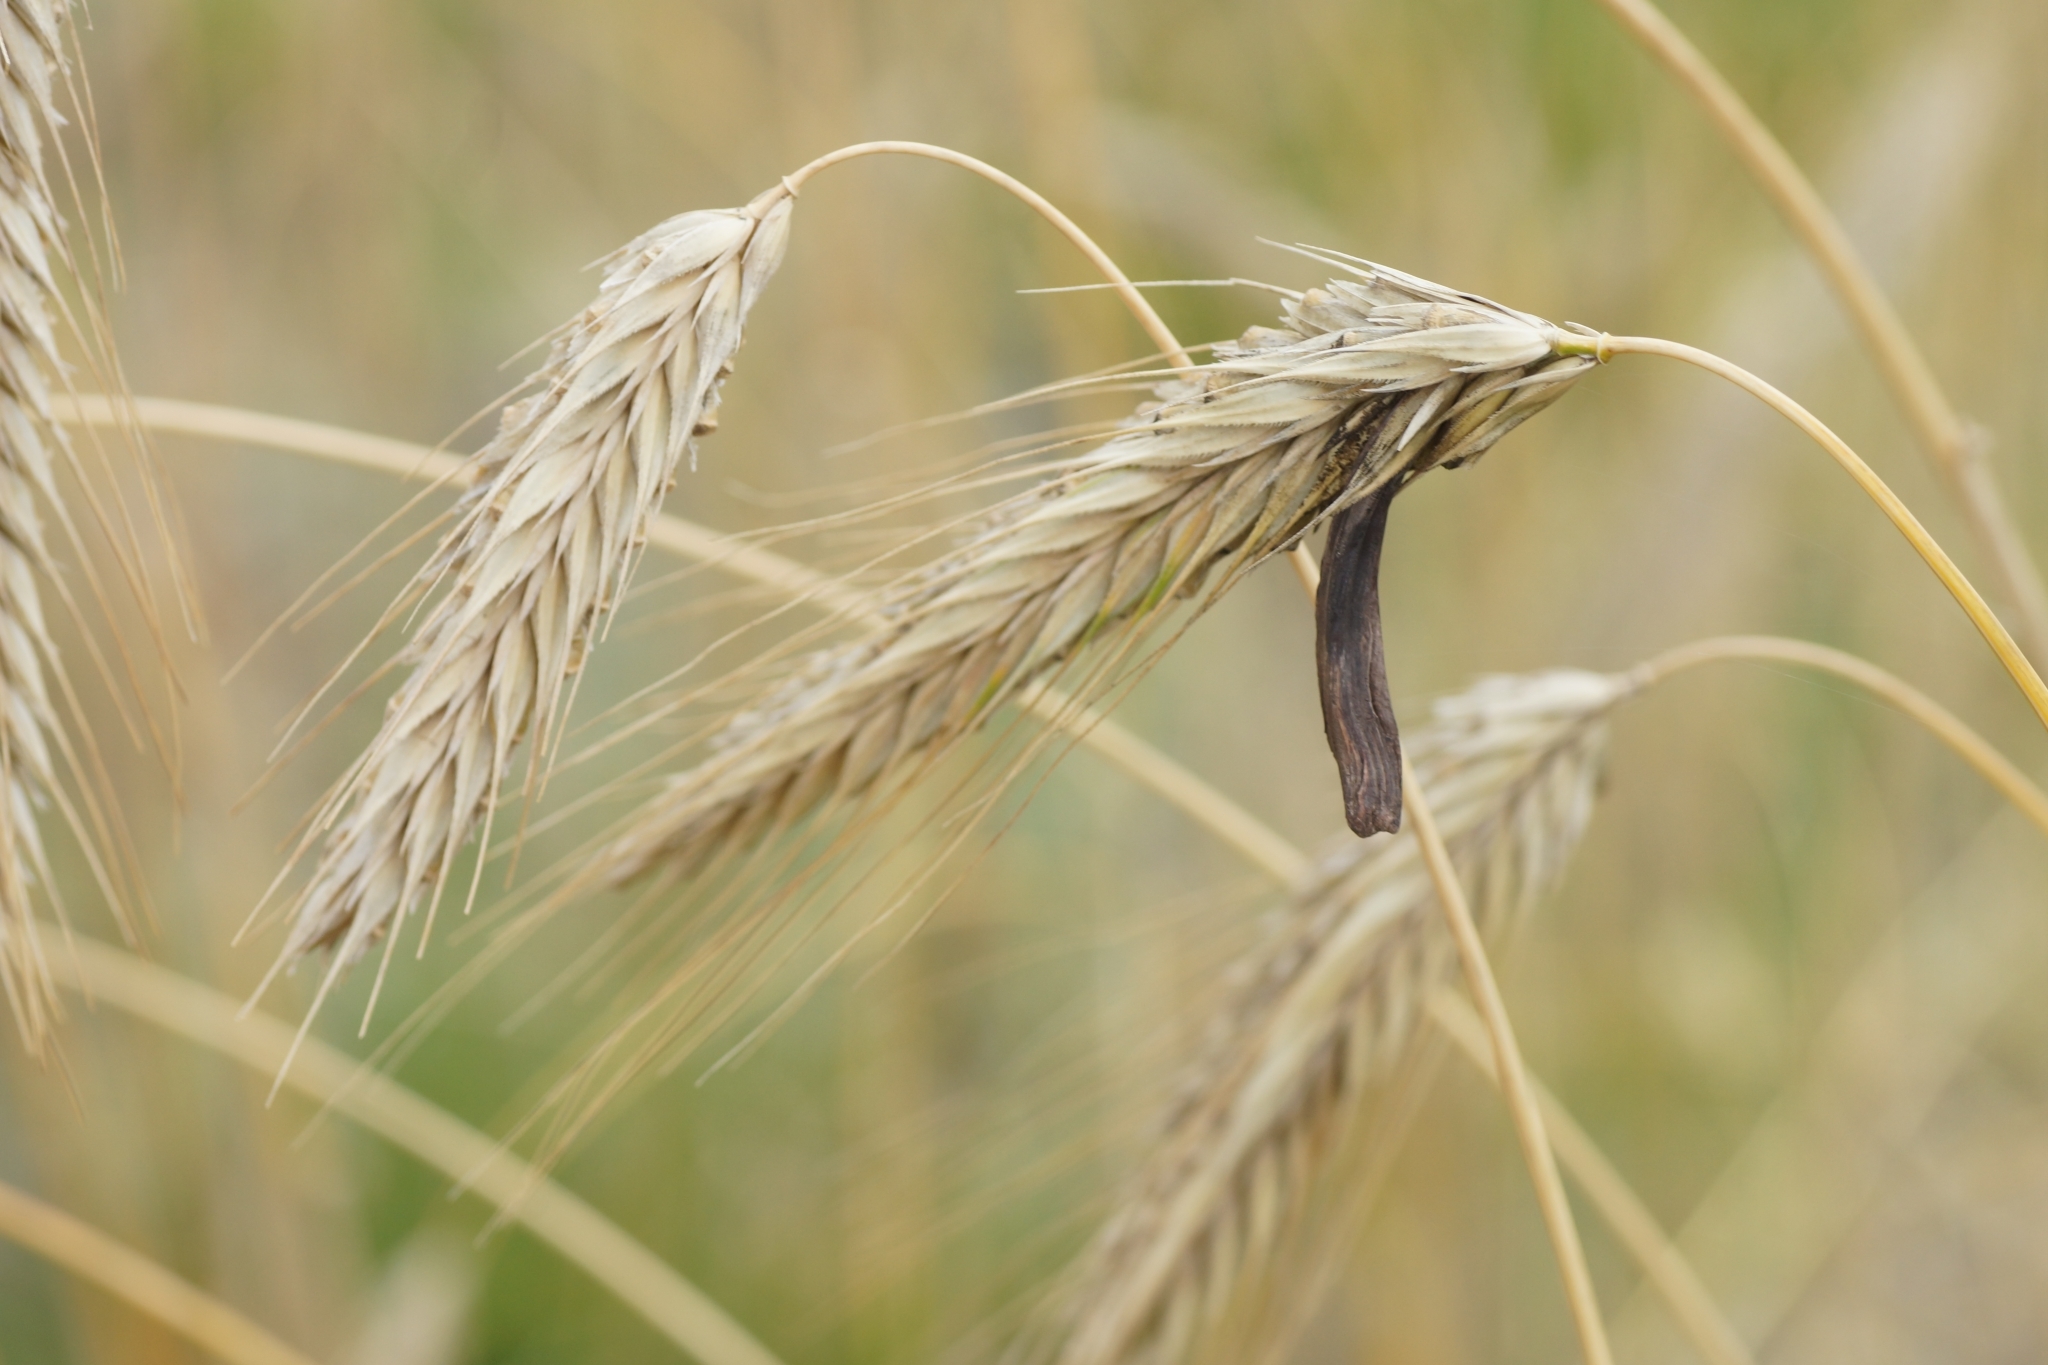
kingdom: Fungi
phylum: Ascomycota
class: Sordariomycetes
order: Hypocreales
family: Clavicipitaceae
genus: Claviceps
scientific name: Claviceps purpurea
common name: Rye ergot
